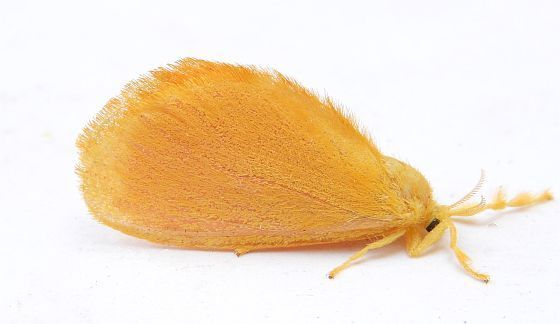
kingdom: Animalia
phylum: Arthropoda
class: Insecta
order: Lepidoptera
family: Dalceridae
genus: Dalcerides
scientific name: Dalcerides ingenita
